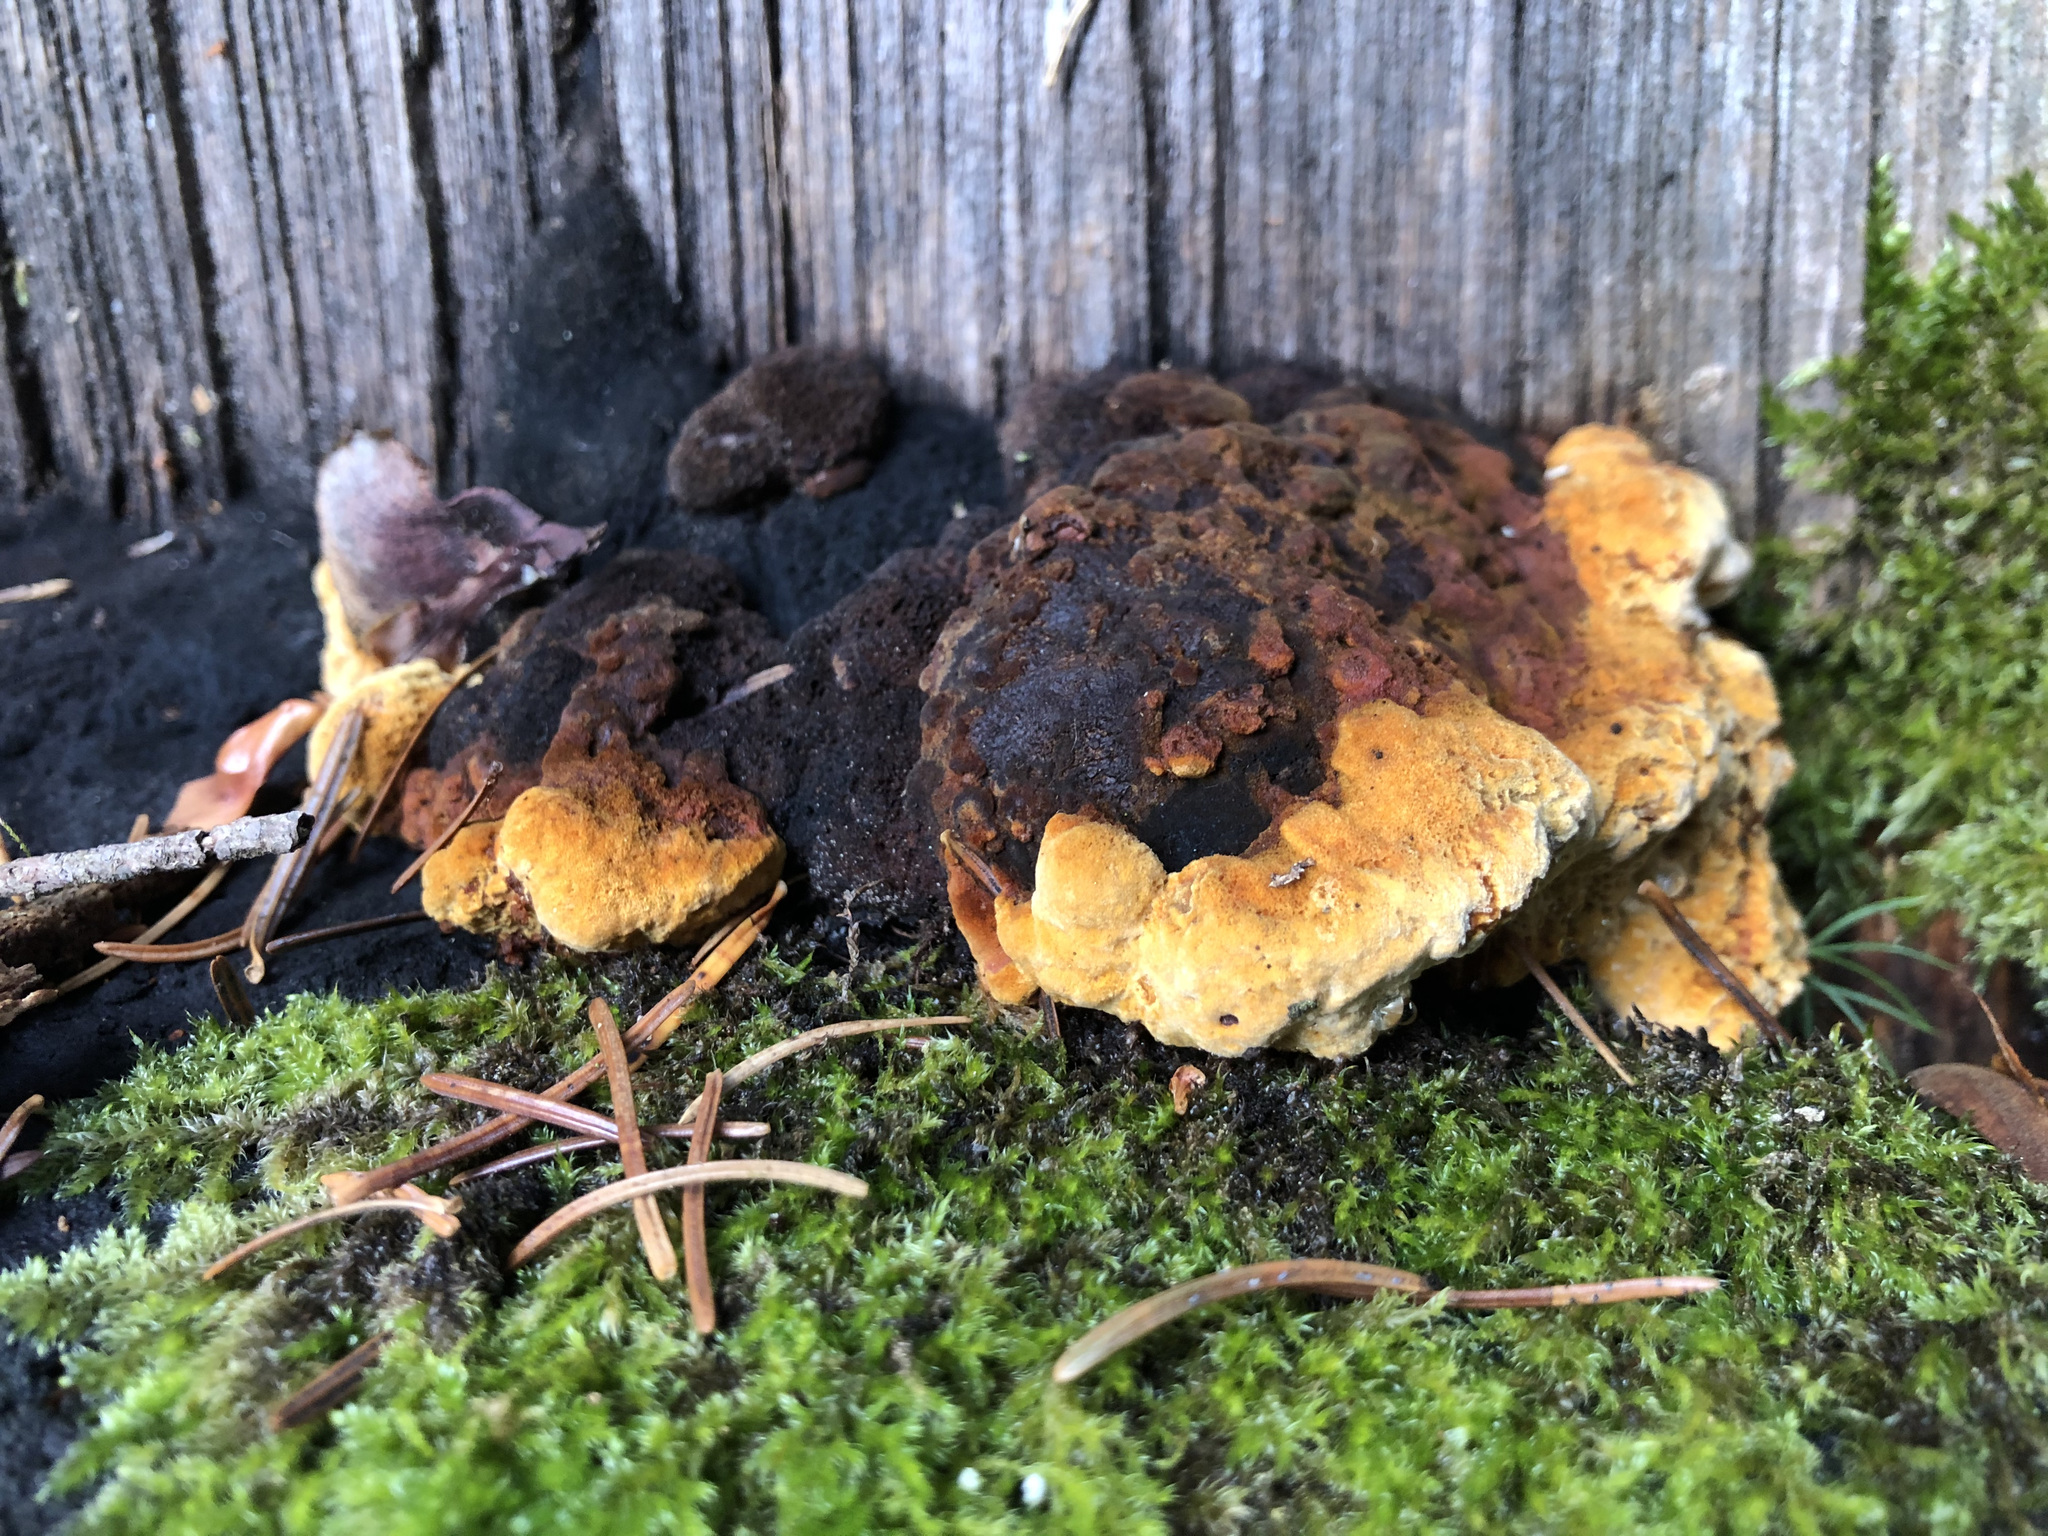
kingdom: Fungi
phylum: Basidiomycota
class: Agaricomycetes
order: Gloeophyllales
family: Gloeophyllaceae
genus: Gloeophyllum
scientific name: Gloeophyllum odoratum
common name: Anise mazegill
